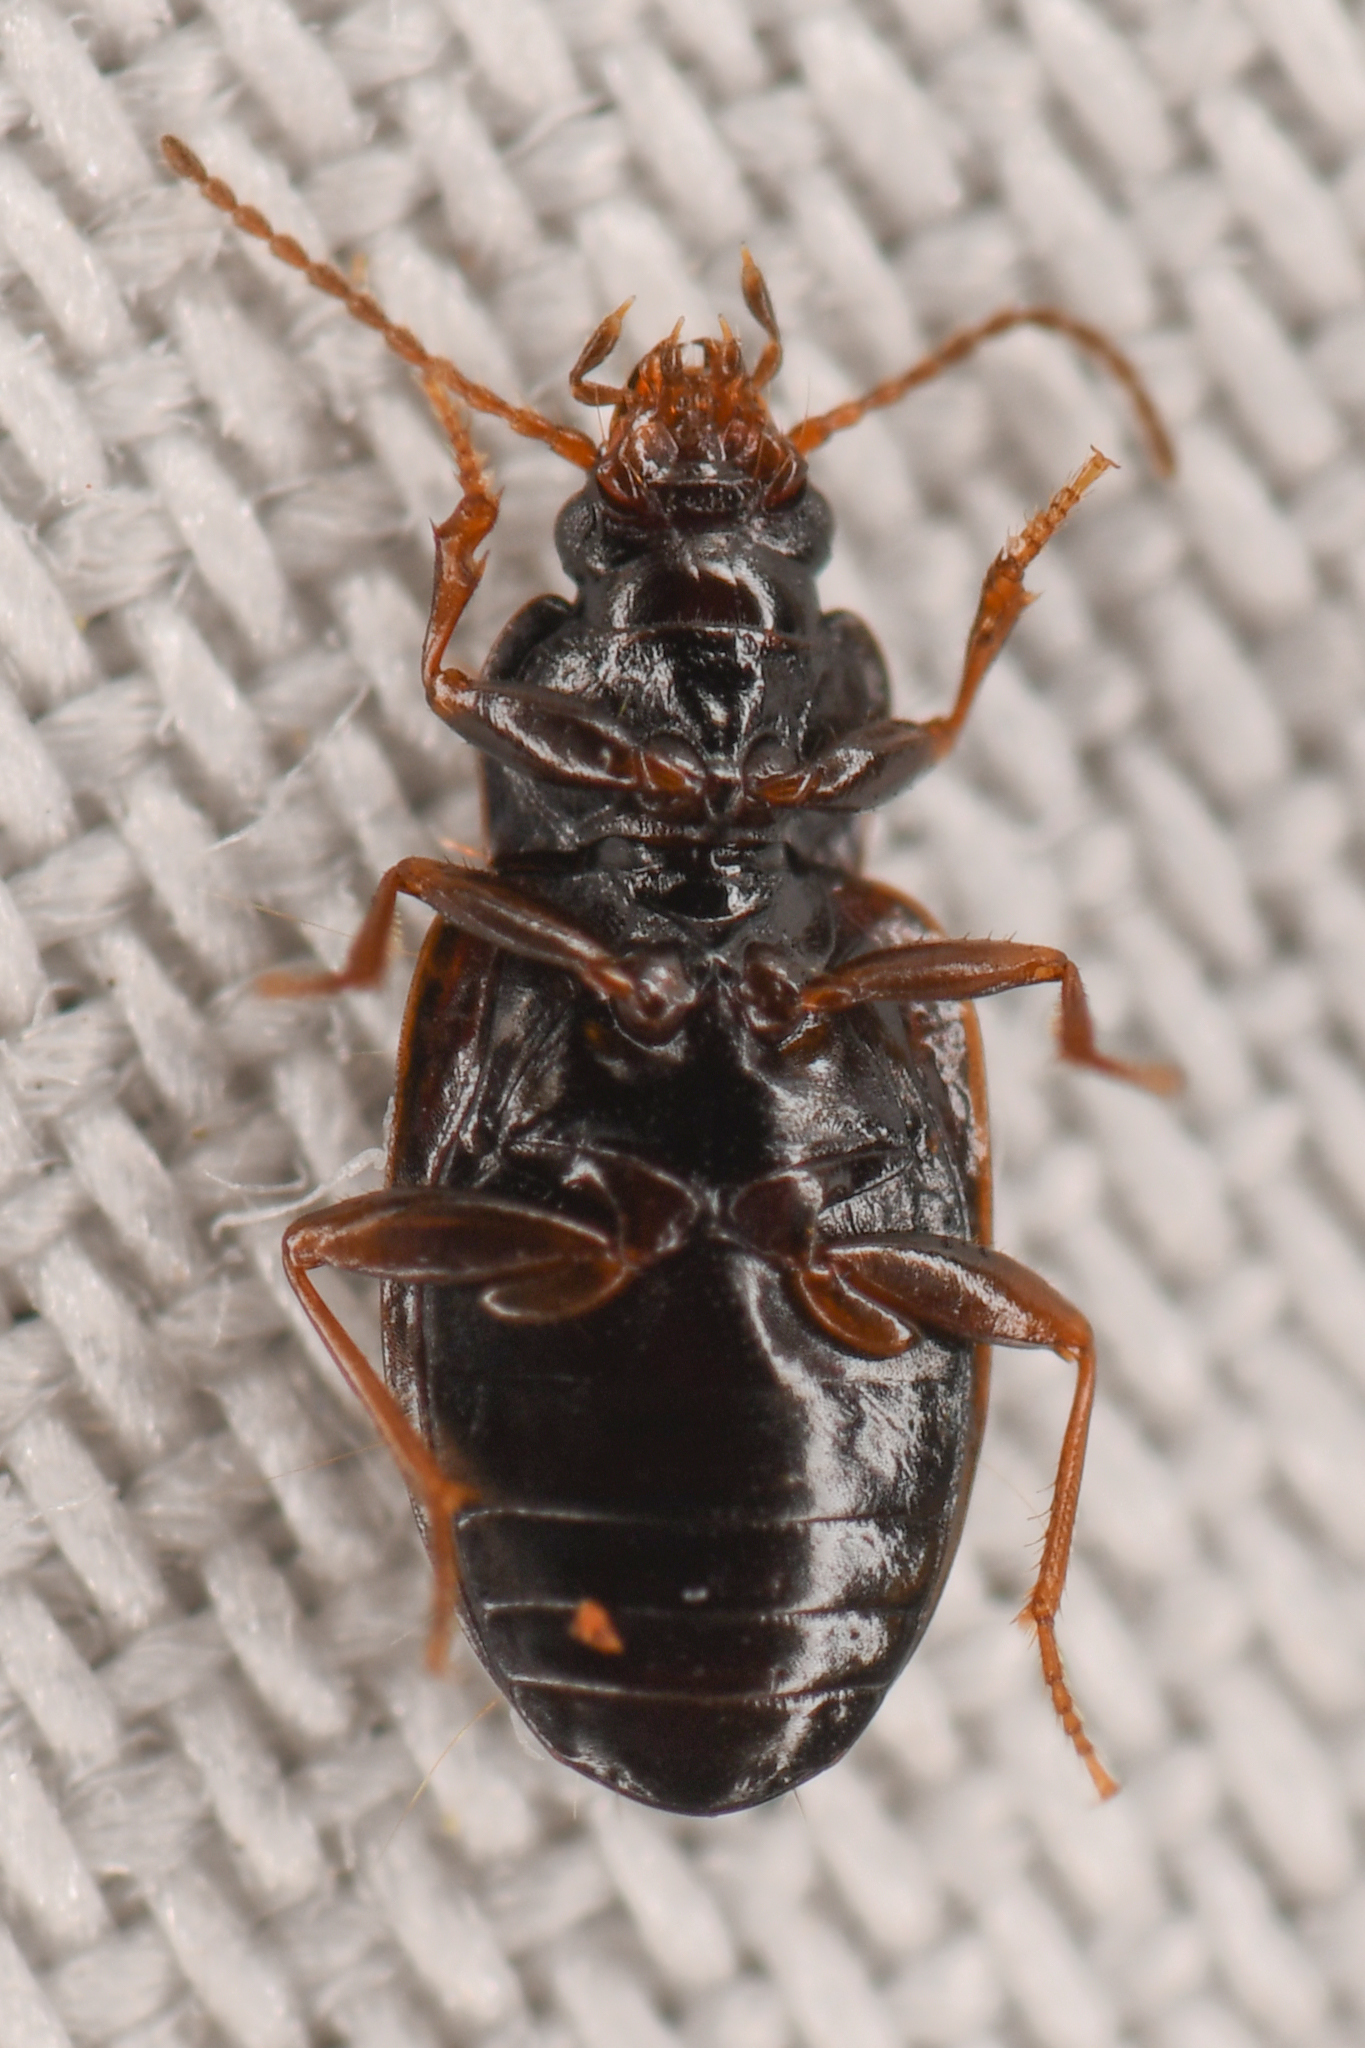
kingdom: Animalia
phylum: Arthropoda
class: Insecta
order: Coleoptera
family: Carabidae
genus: Tachyta
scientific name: Tachyta falli
